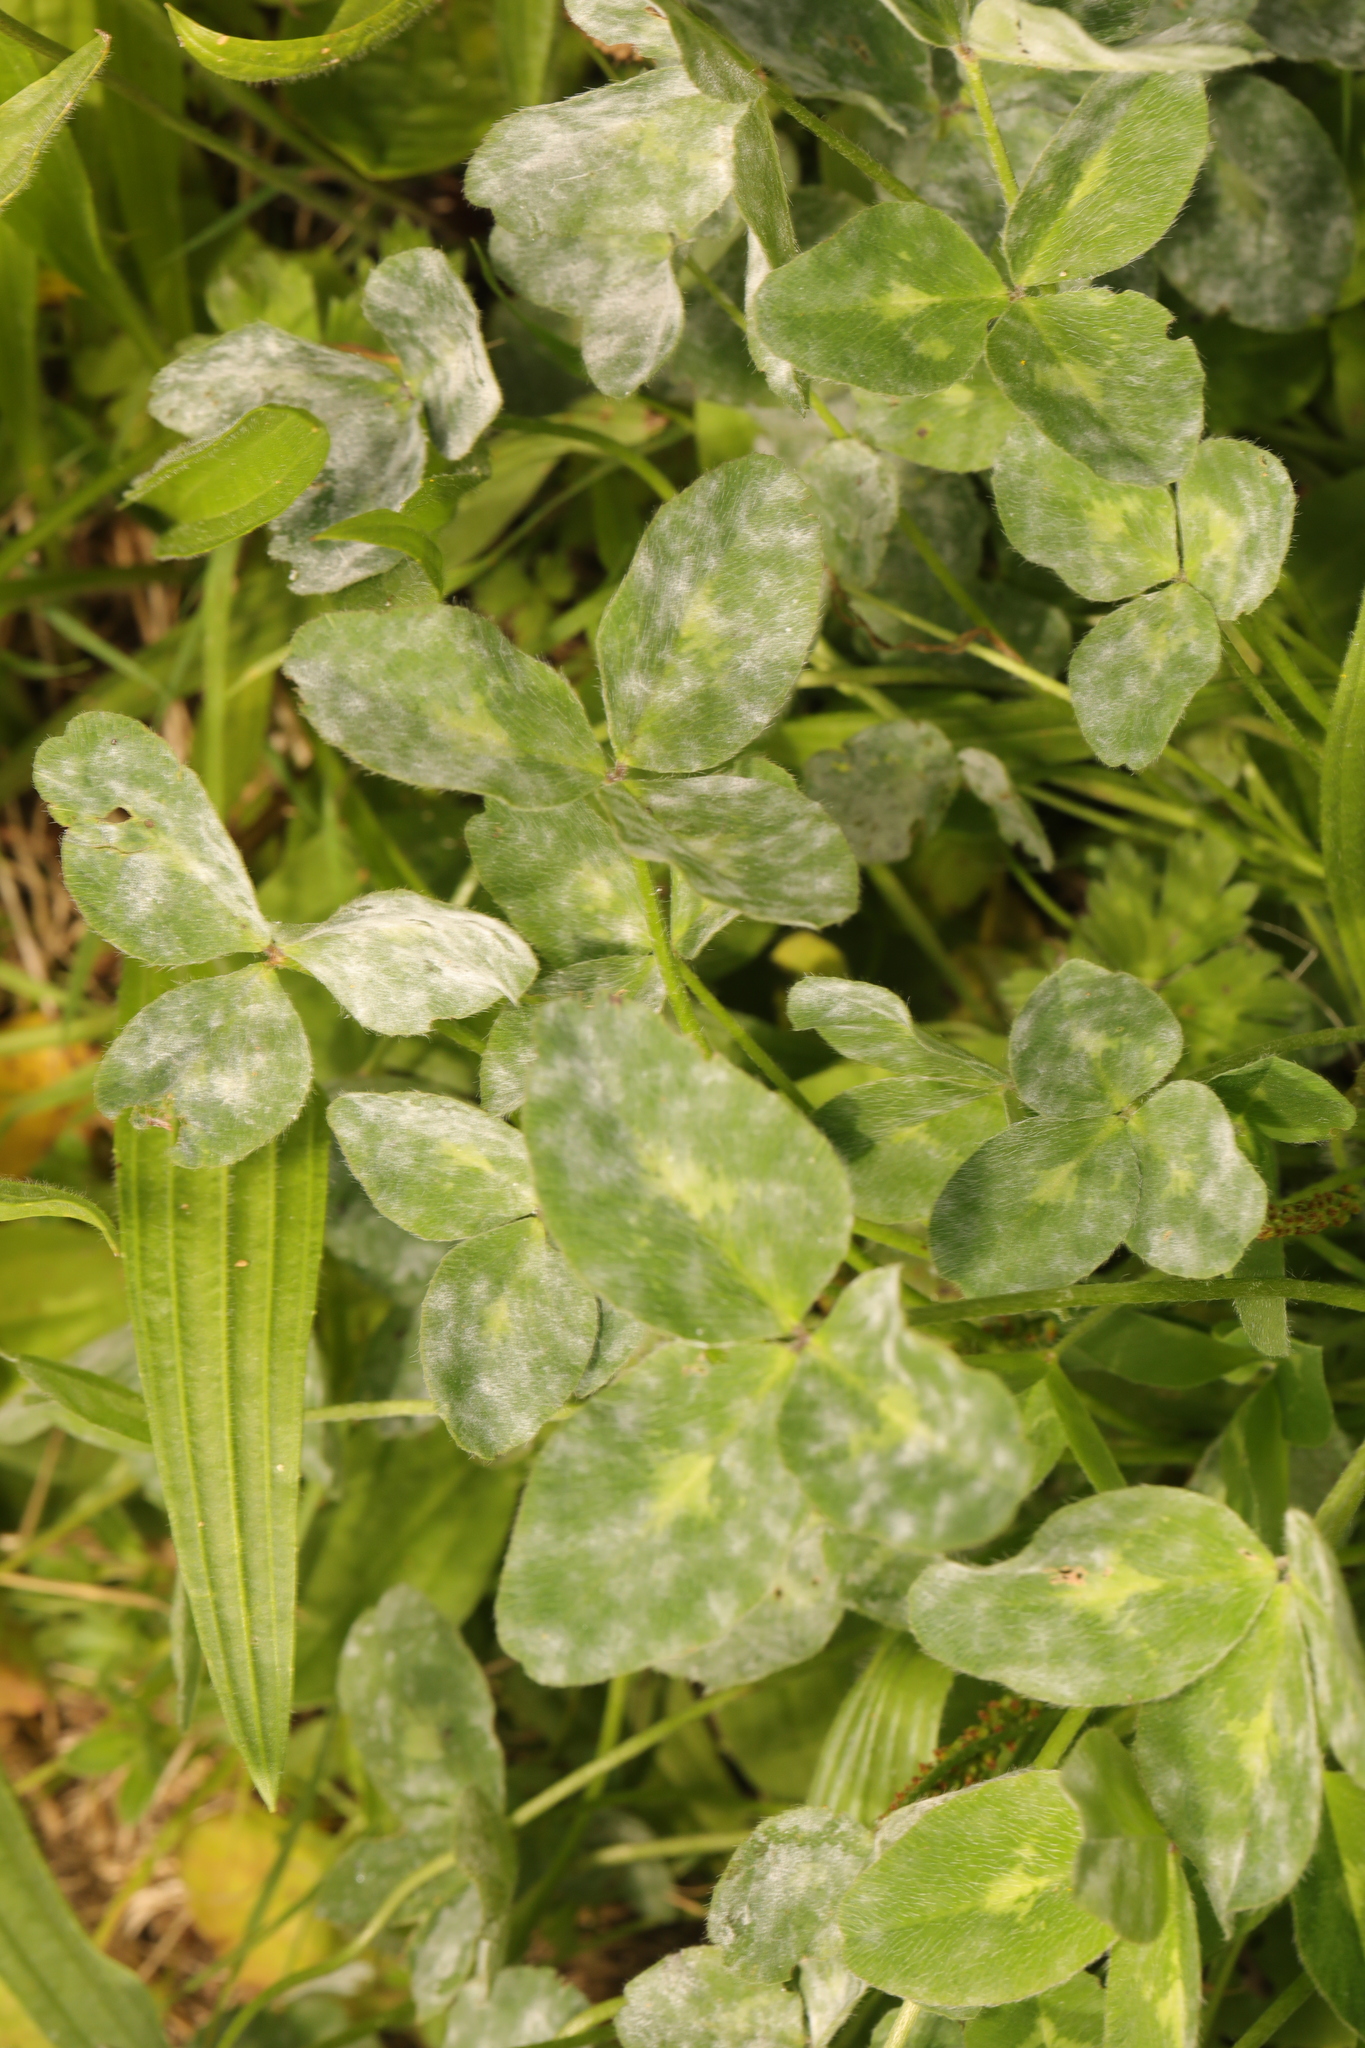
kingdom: Plantae
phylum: Tracheophyta
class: Magnoliopsida
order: Fabales
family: Fabaceae
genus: Trifolium
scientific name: Trifolium pratense
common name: Red clover
